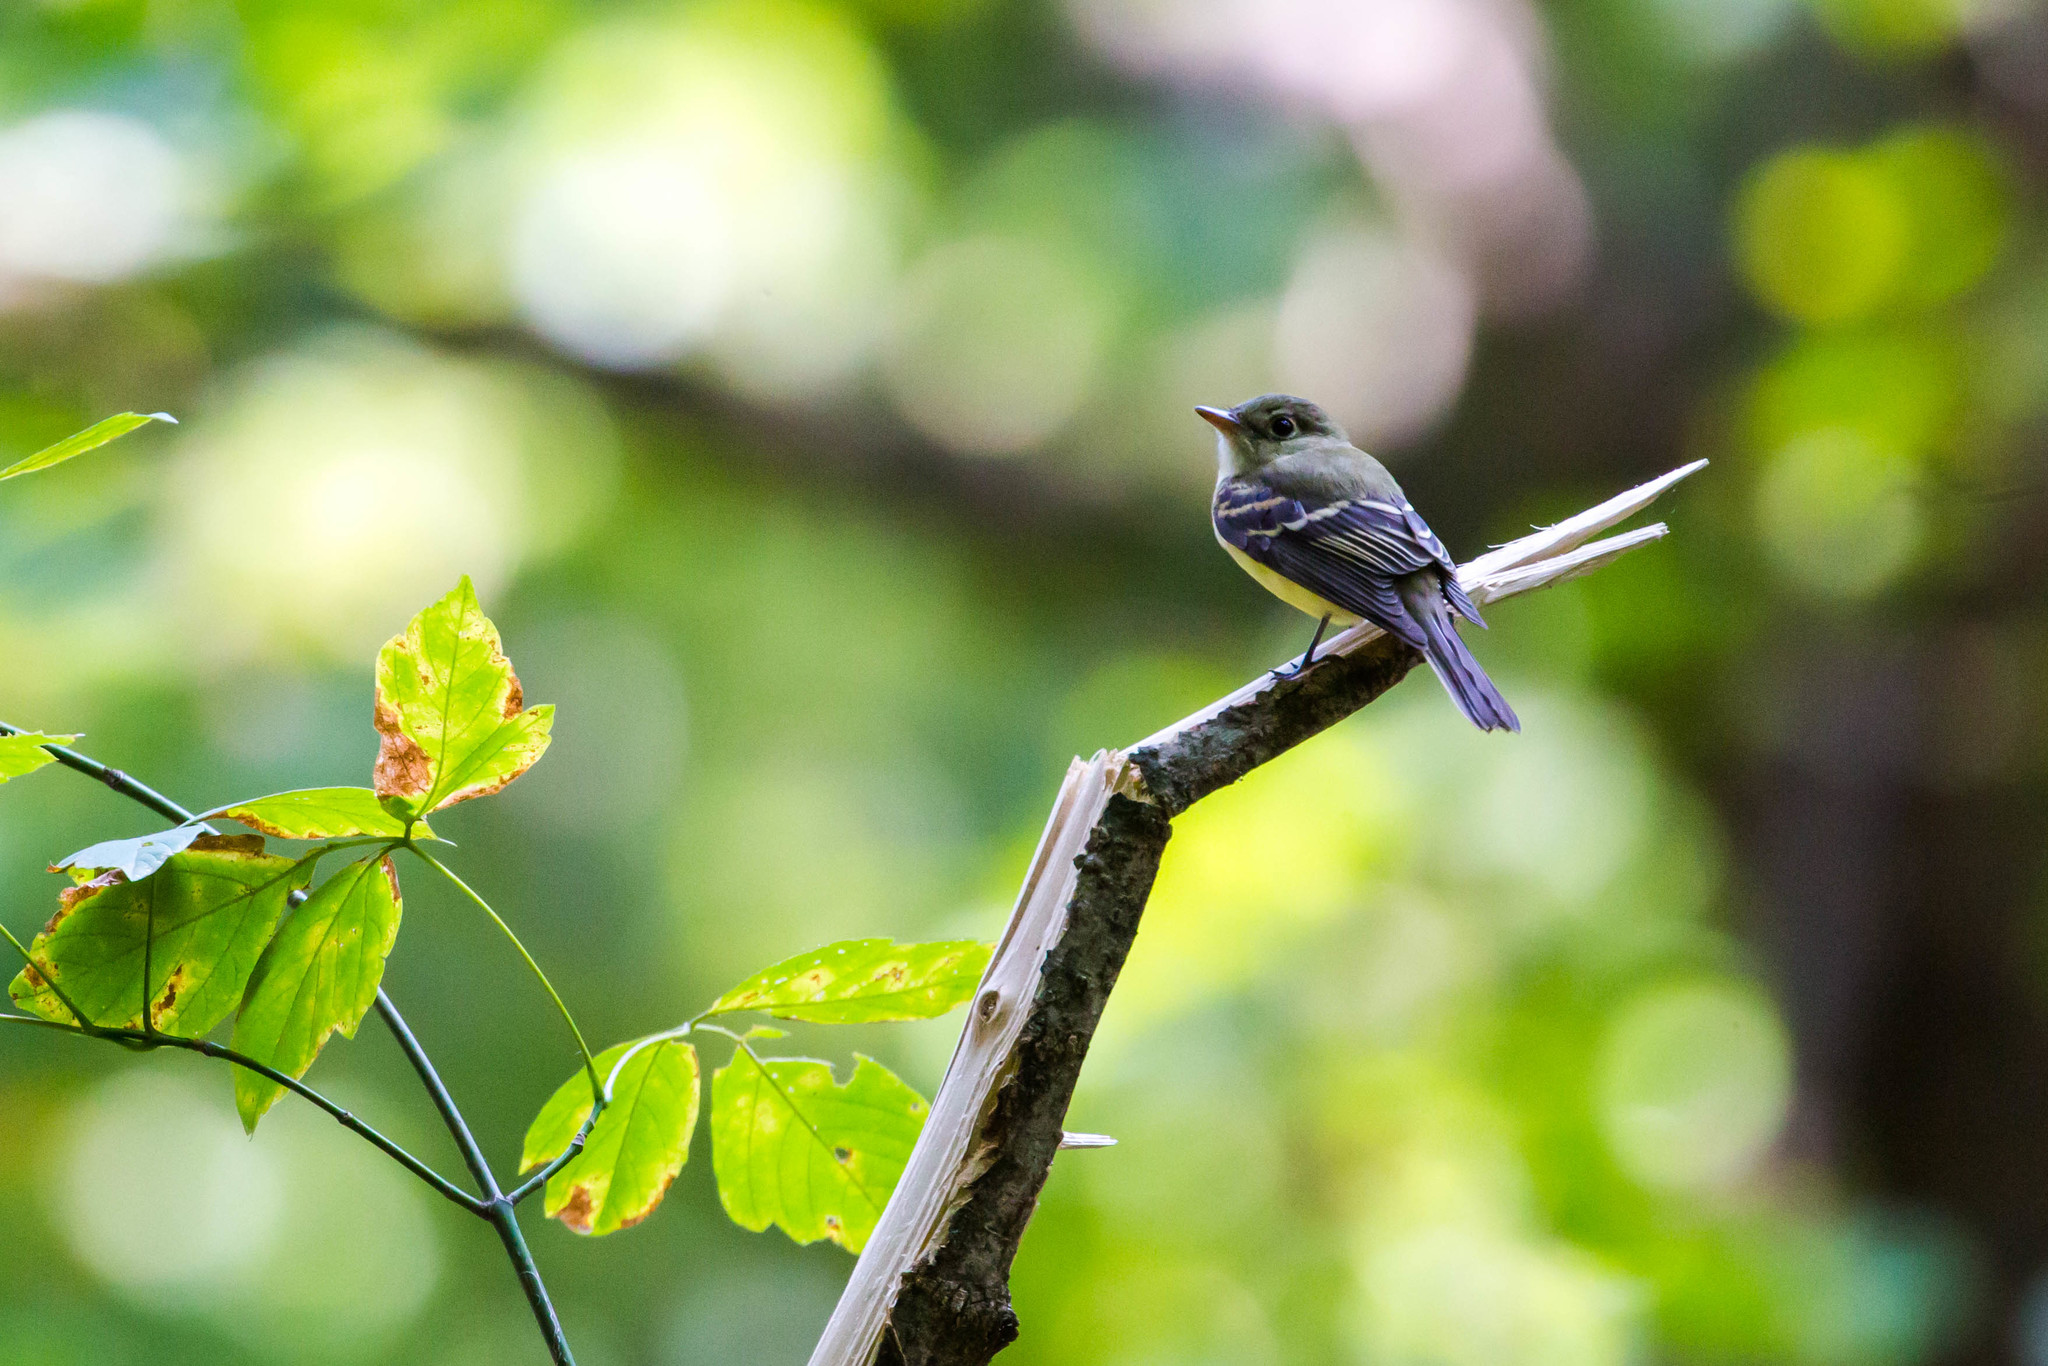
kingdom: Animalia
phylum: Chordata
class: Aves
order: Passeriformes
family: Tyrannidae
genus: Empidonax
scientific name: Empidonax virescens
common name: Acadian flycatcher
